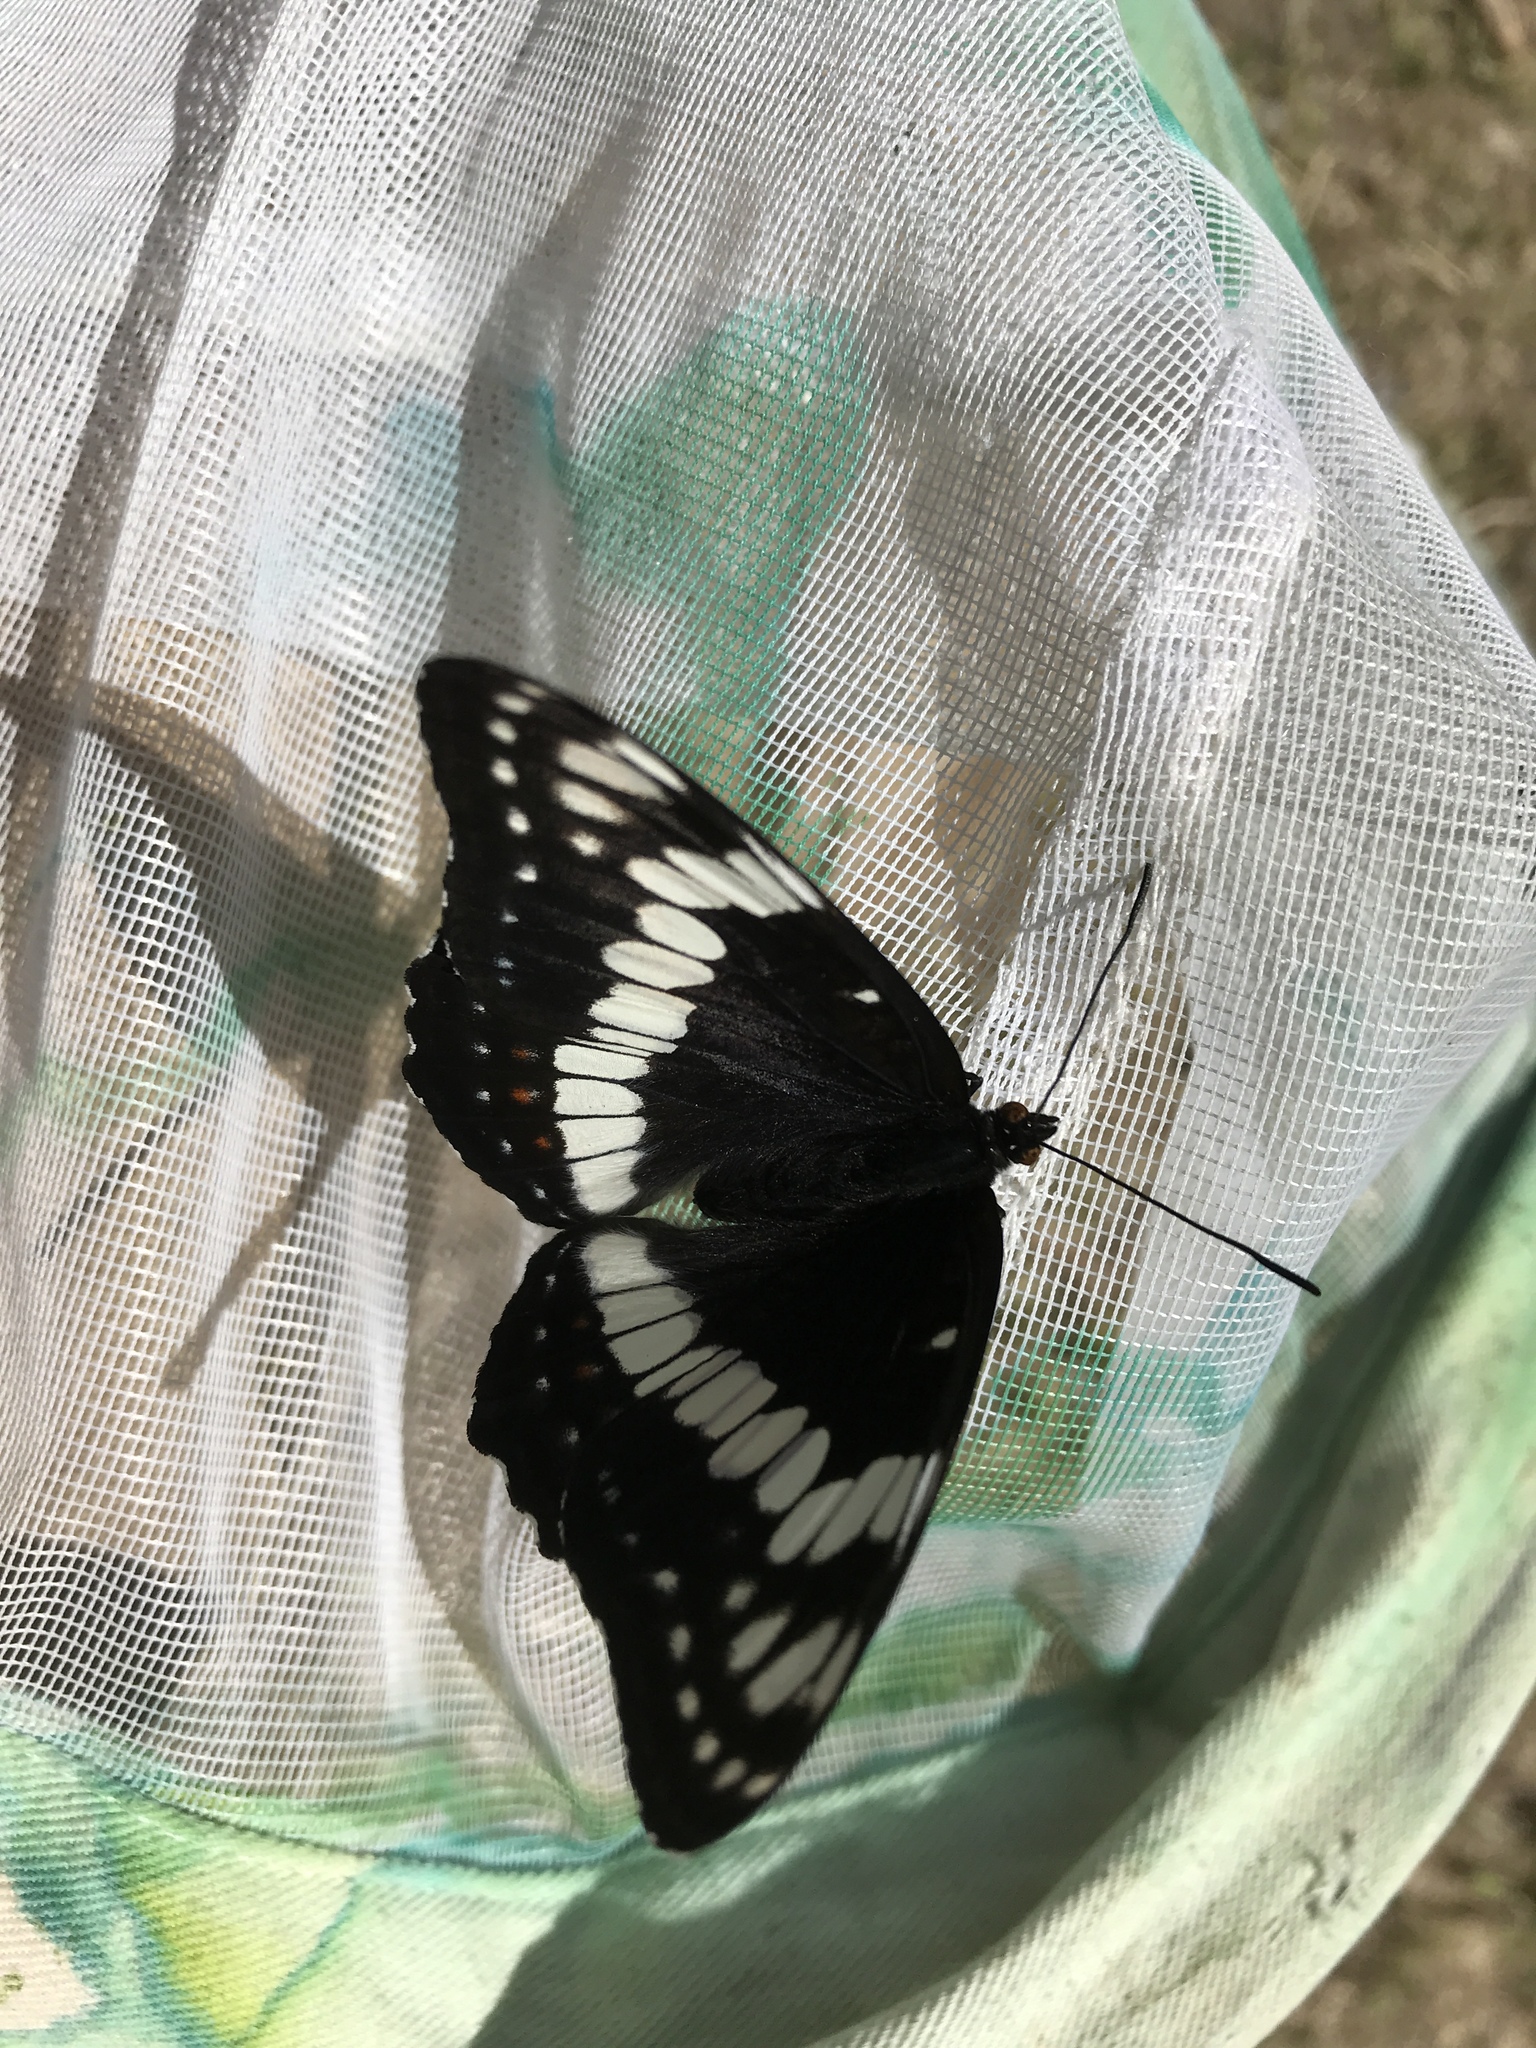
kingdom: Animalia
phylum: Arthropoda
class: Insecta
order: Lepidoptera
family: Nymphalidae
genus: Limenitis
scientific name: Limenitis weidemeyerii
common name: Weidemeyer's admiral
